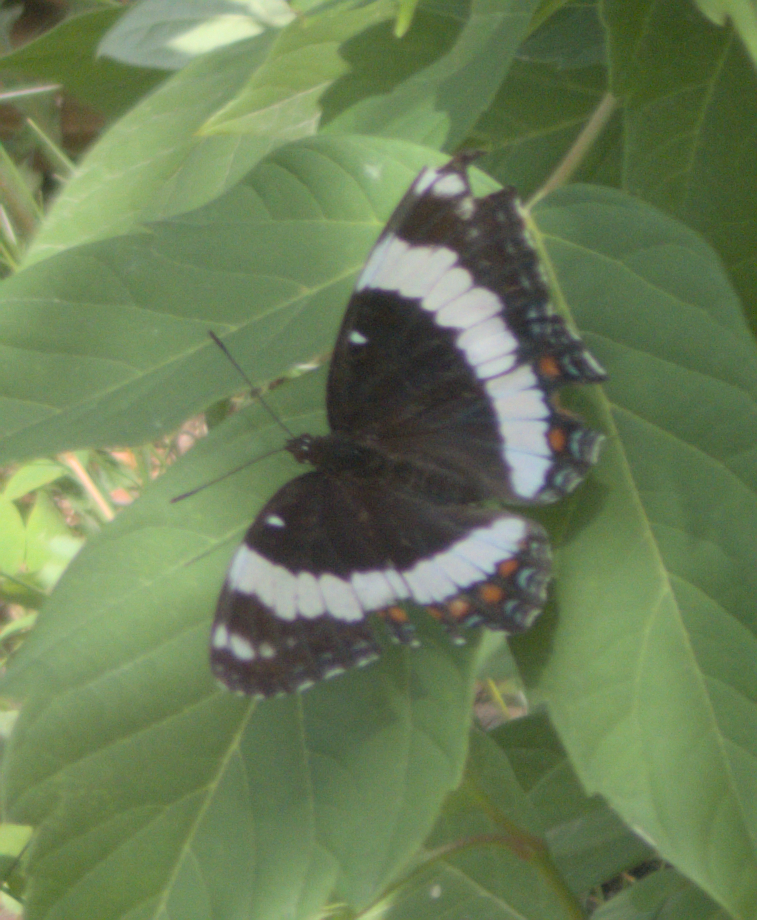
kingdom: Animalia
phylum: Arthropoda
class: Insecta
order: Lepidoptera
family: Nymphalidae
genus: Limenitis
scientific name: Limenitis arthemis
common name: Red-spotted admiral
